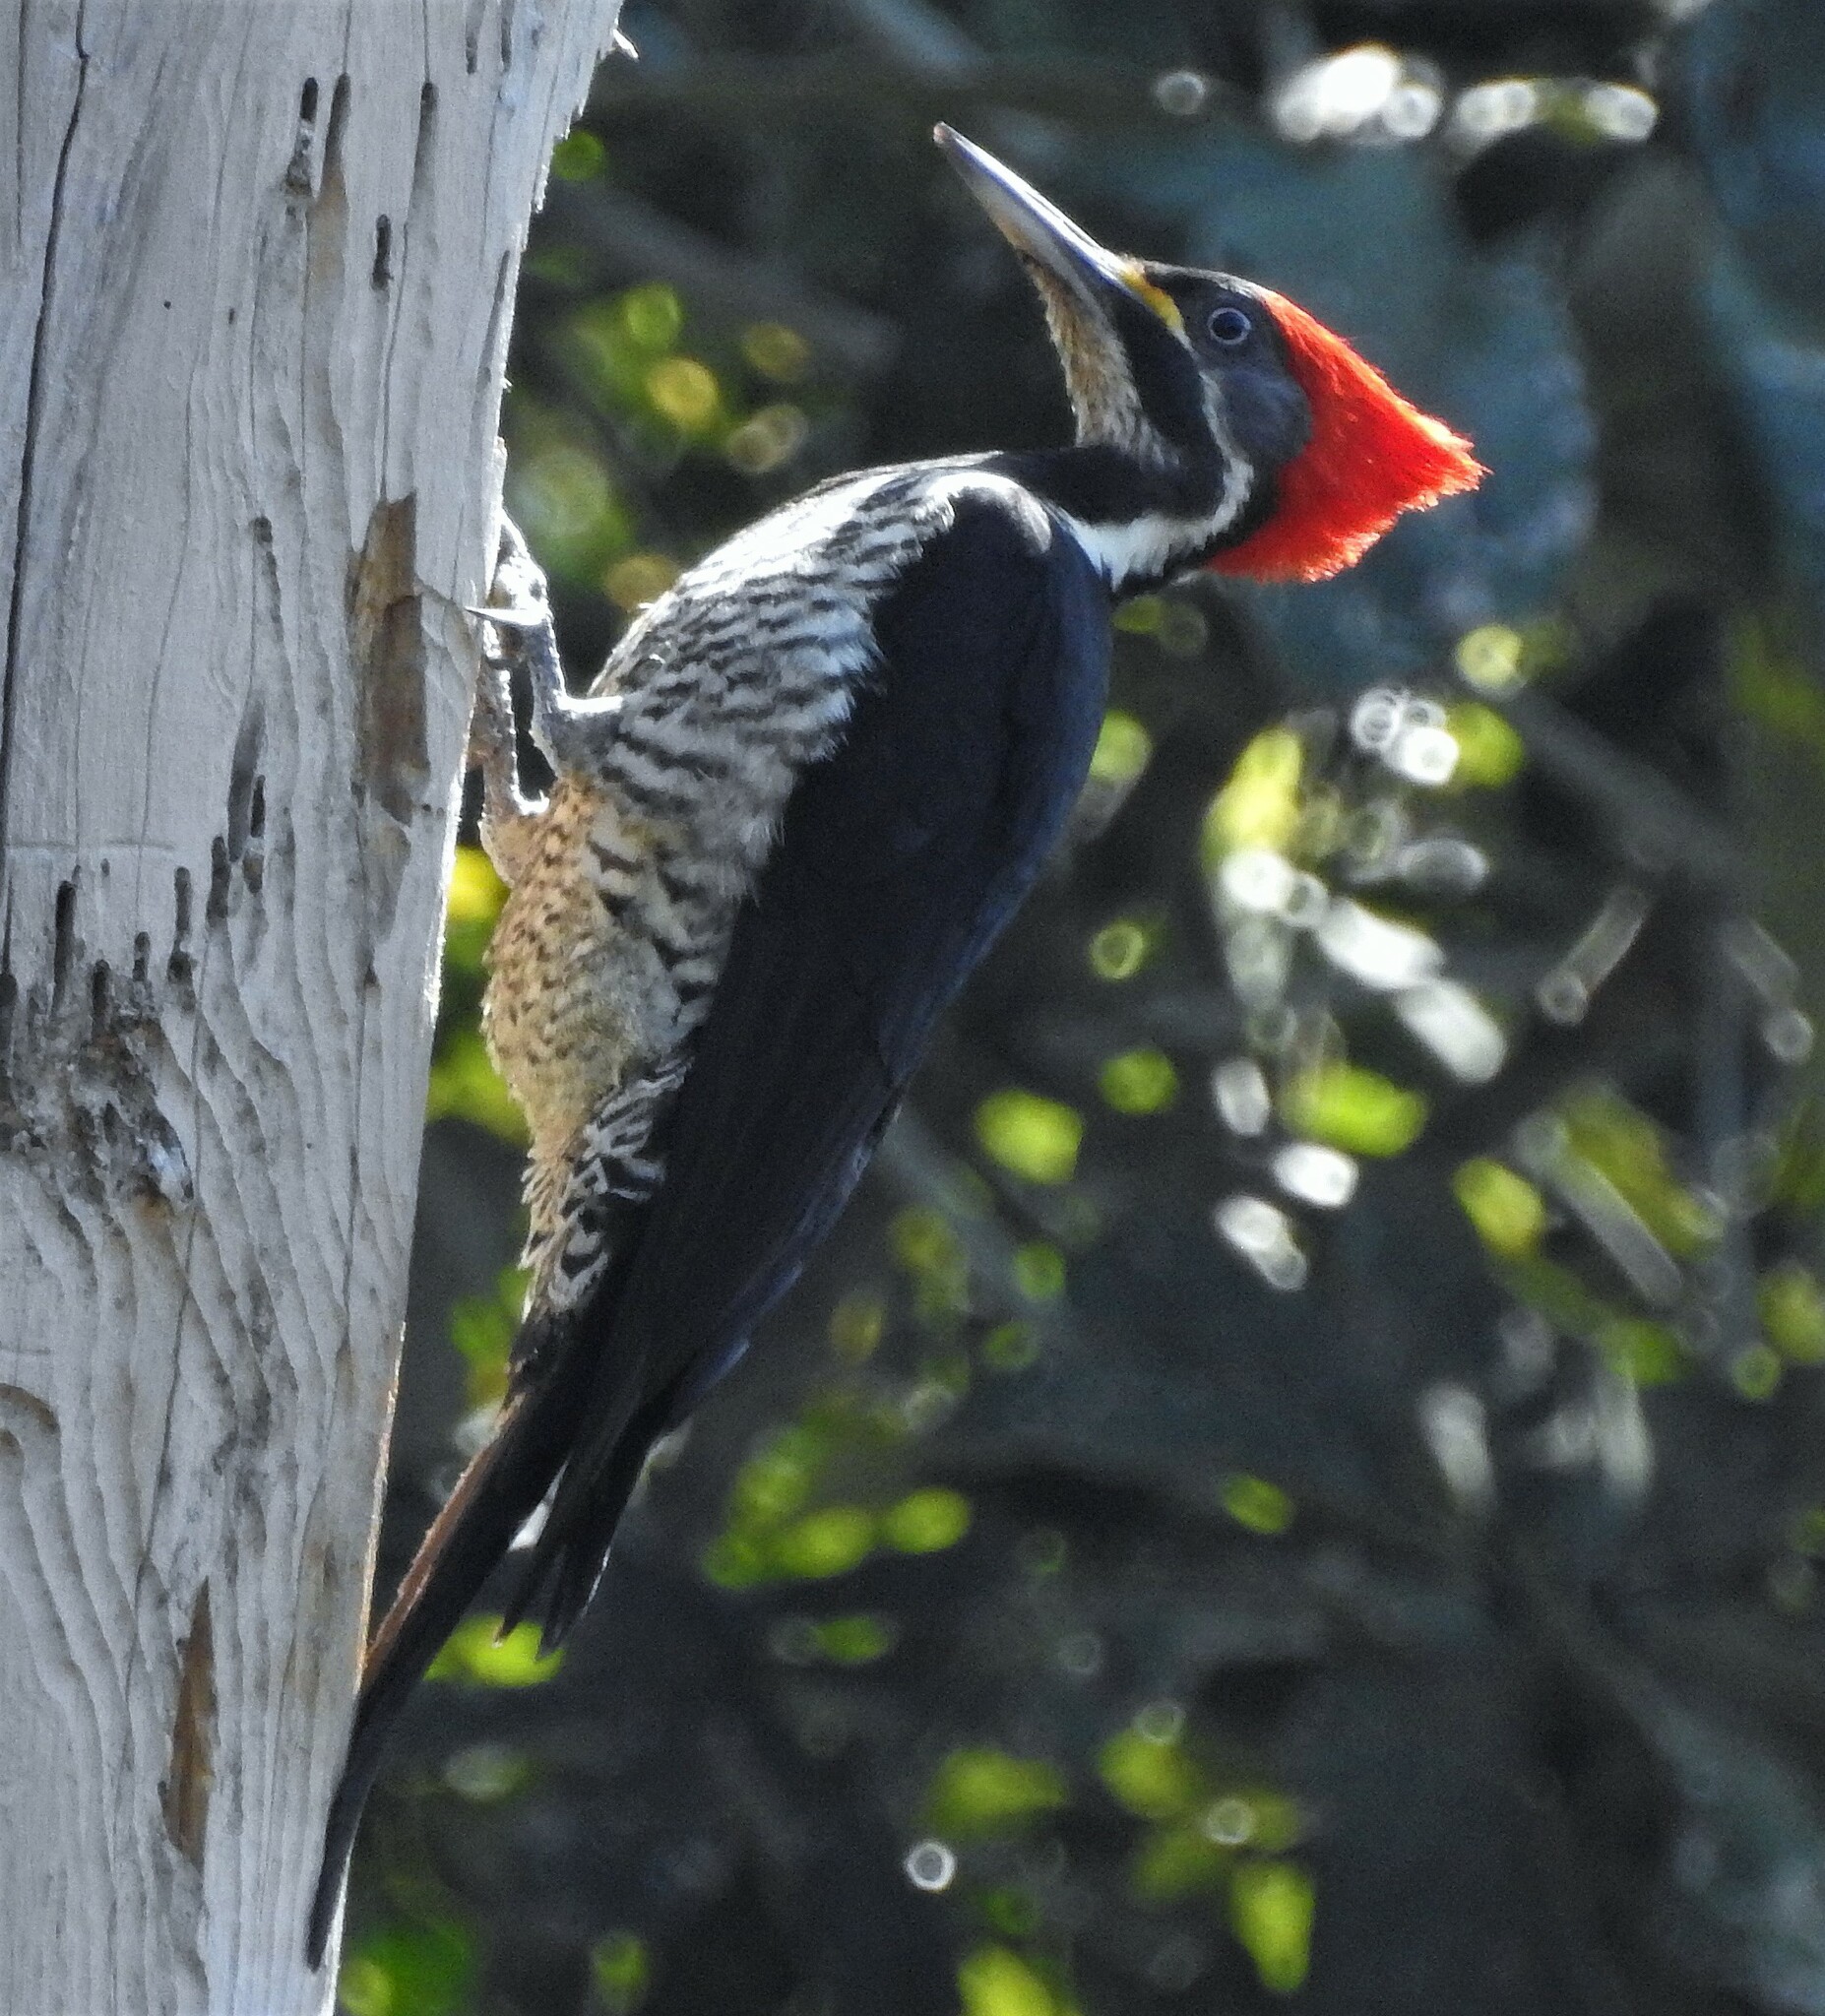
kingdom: Animalia
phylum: Chordata
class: Aves
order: Piciformes
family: Picidae
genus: Dryocopus
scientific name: Dryocopus lineatus
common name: Lineated woodpecker
